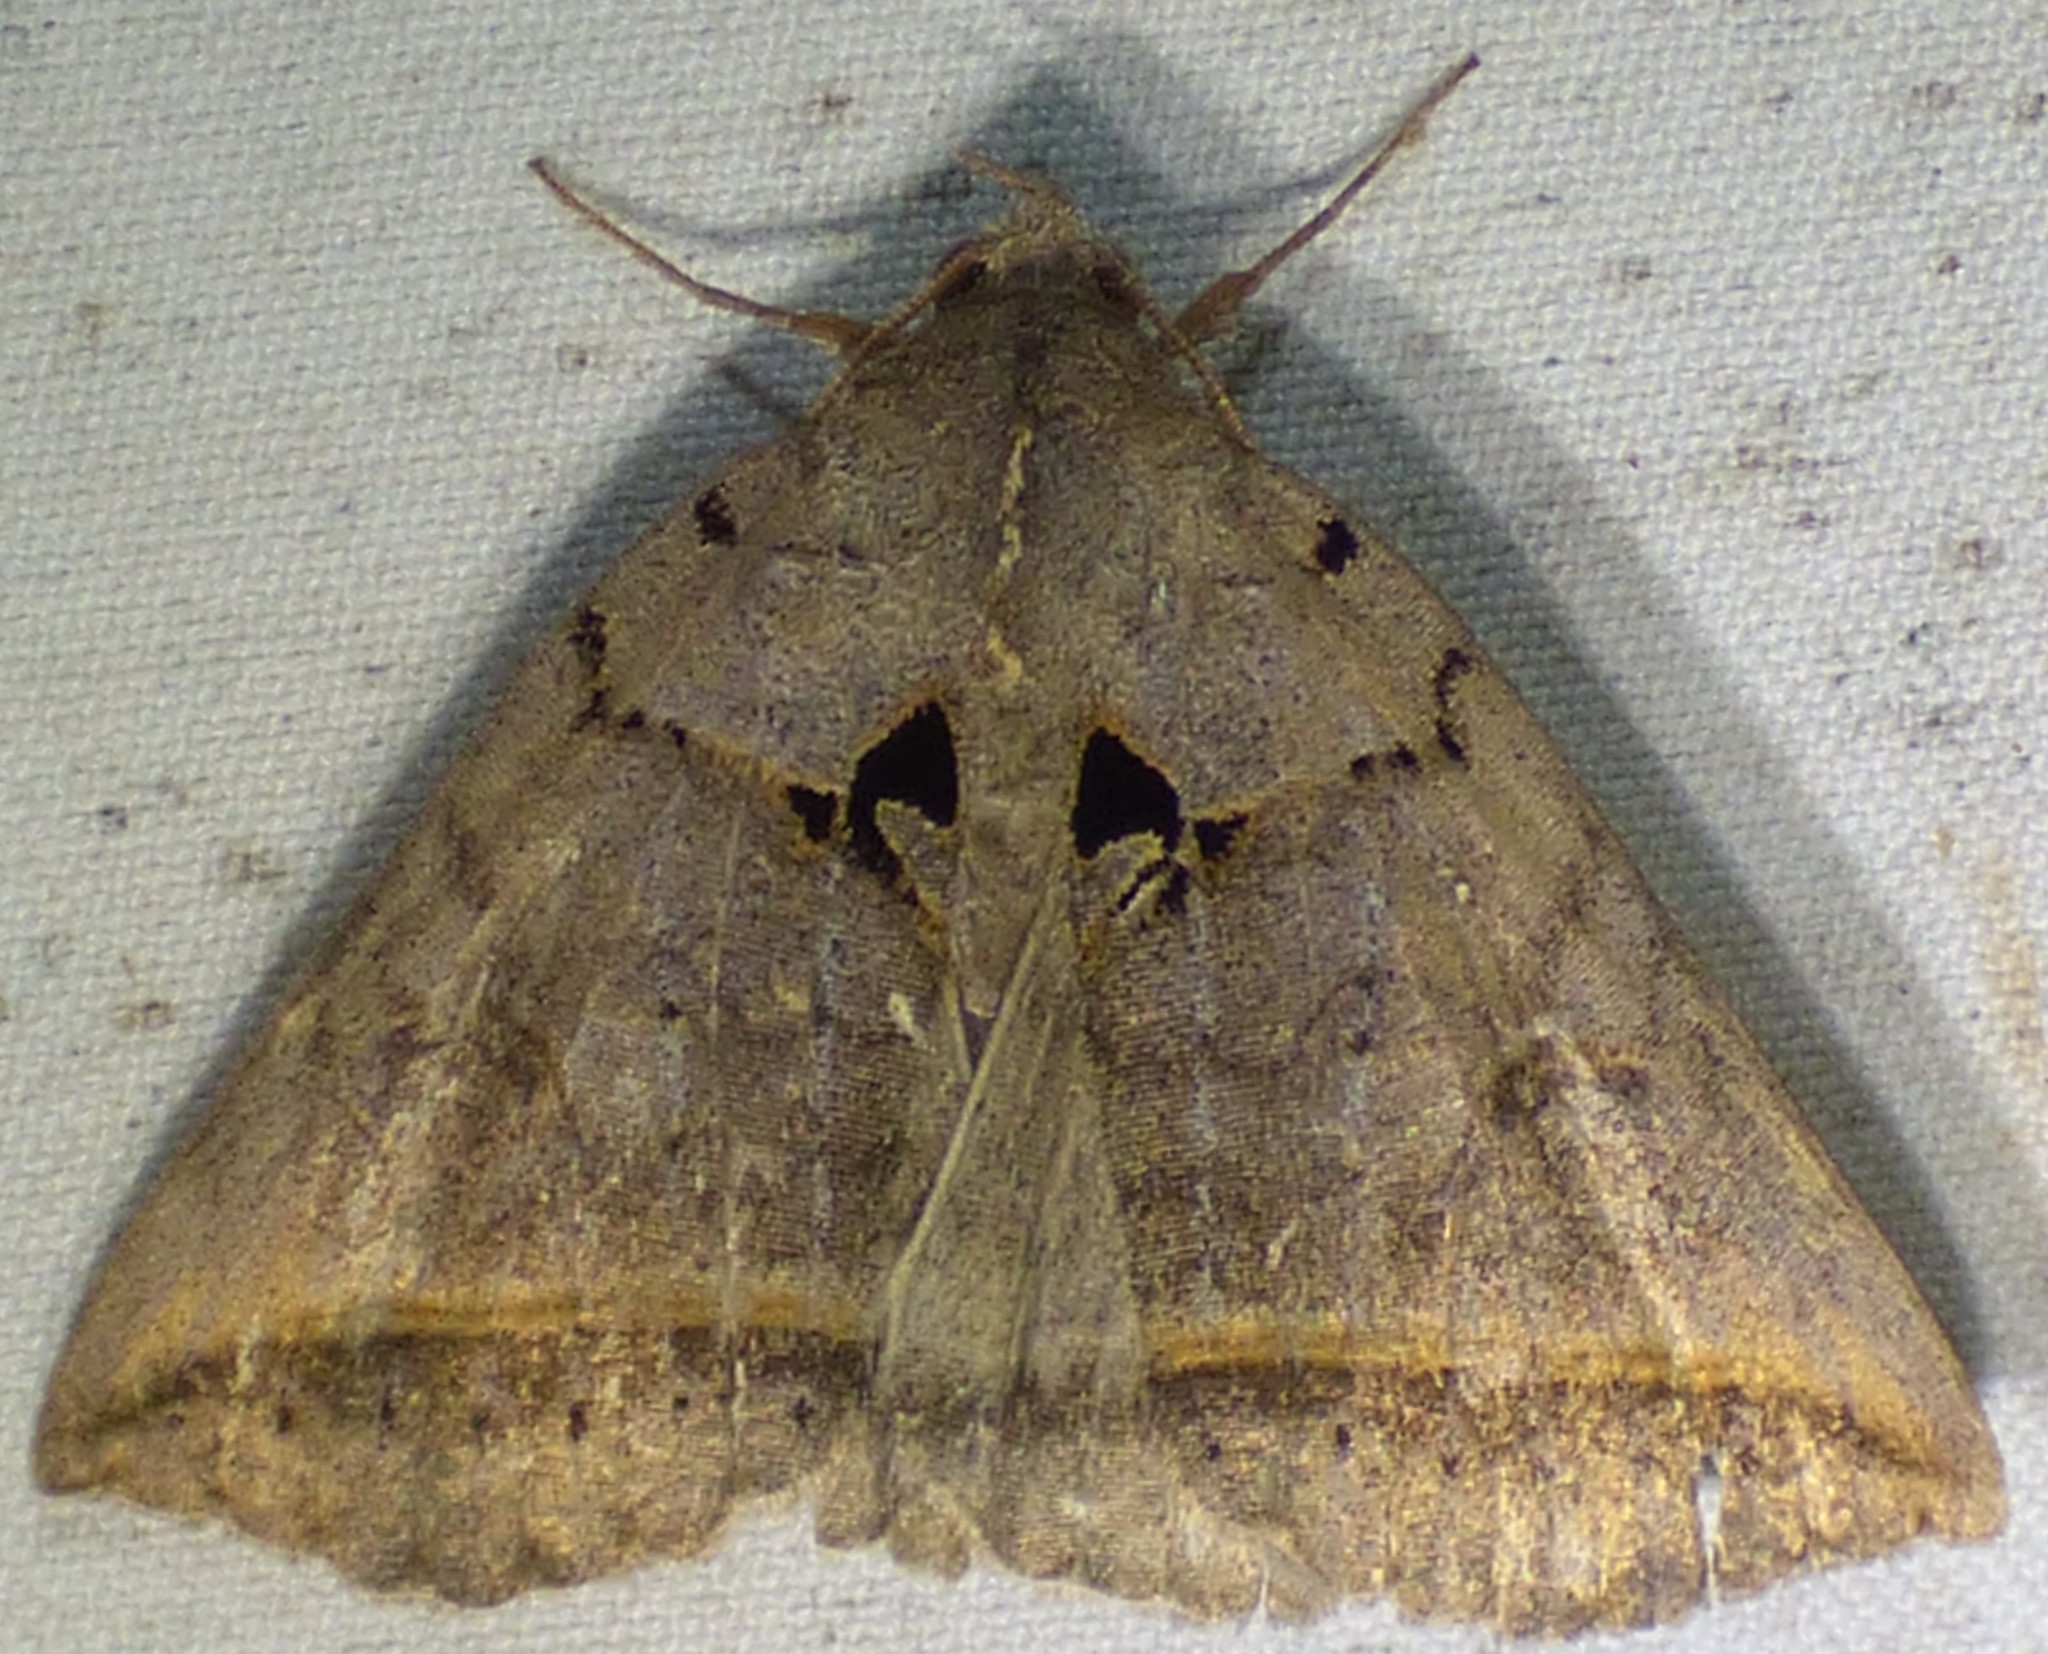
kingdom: Animalia
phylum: Arthropoda
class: Insecta
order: Lepidoptera
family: Erebidae
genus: Celiptera
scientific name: Celiptera frustulum
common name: Black bit moth
